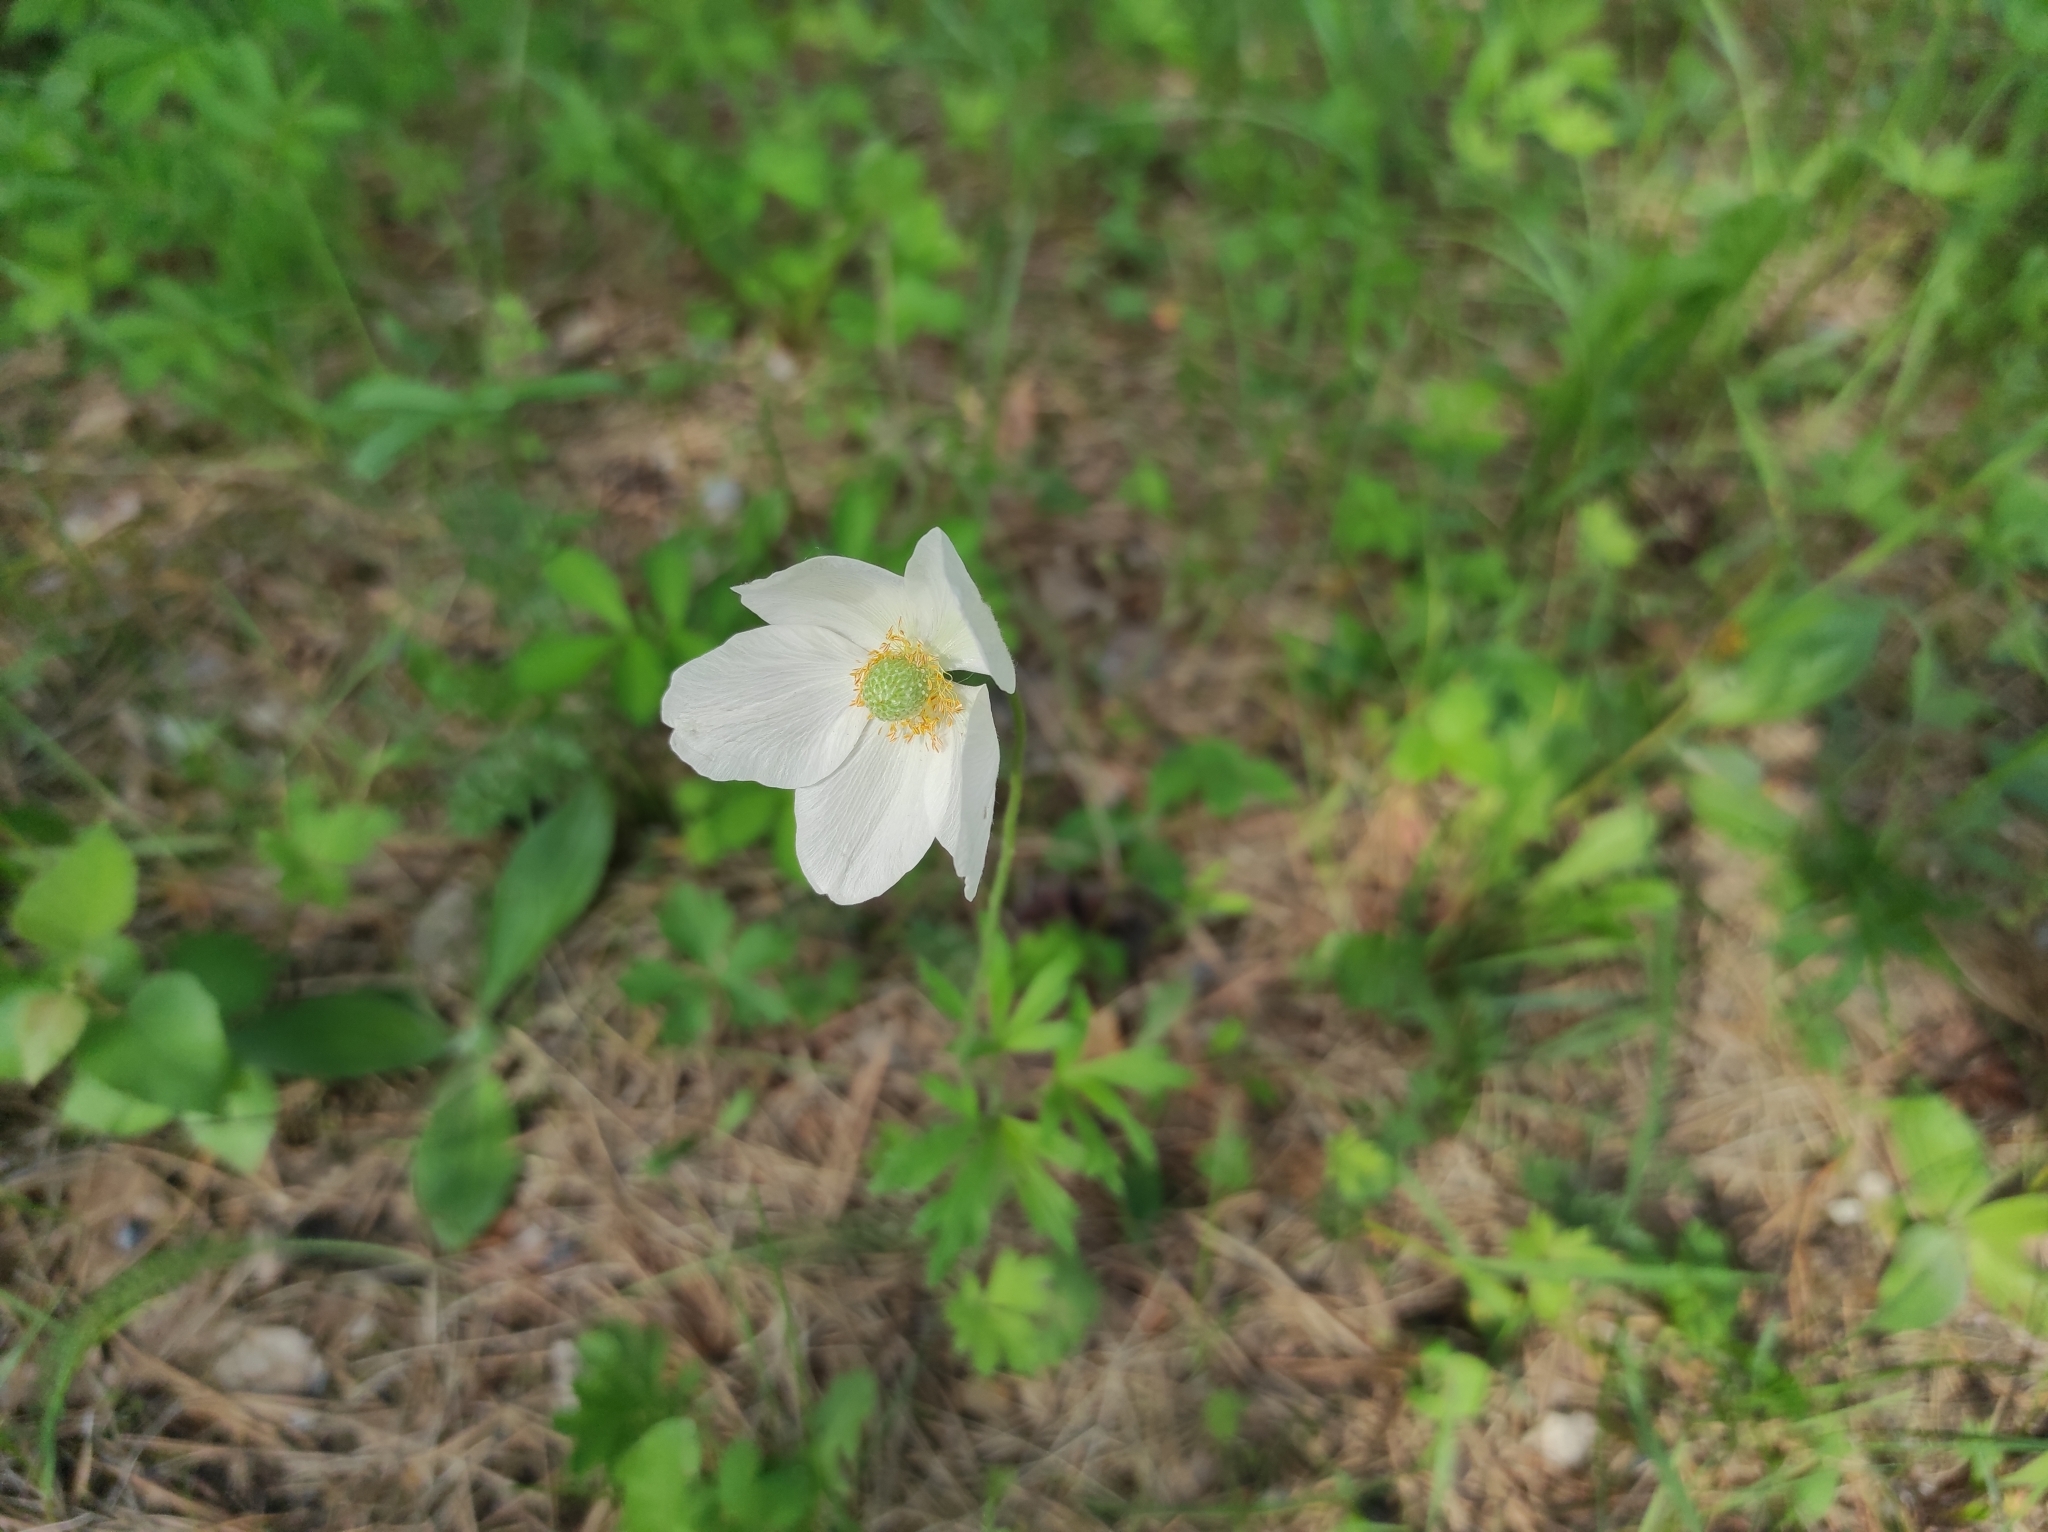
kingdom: Plantae
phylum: Tracheophyta
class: Magnoliopsida
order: Ranunculales
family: Ranunculaceae
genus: Anemone
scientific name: Anemone sylvestris
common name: Snowdrop anemone
